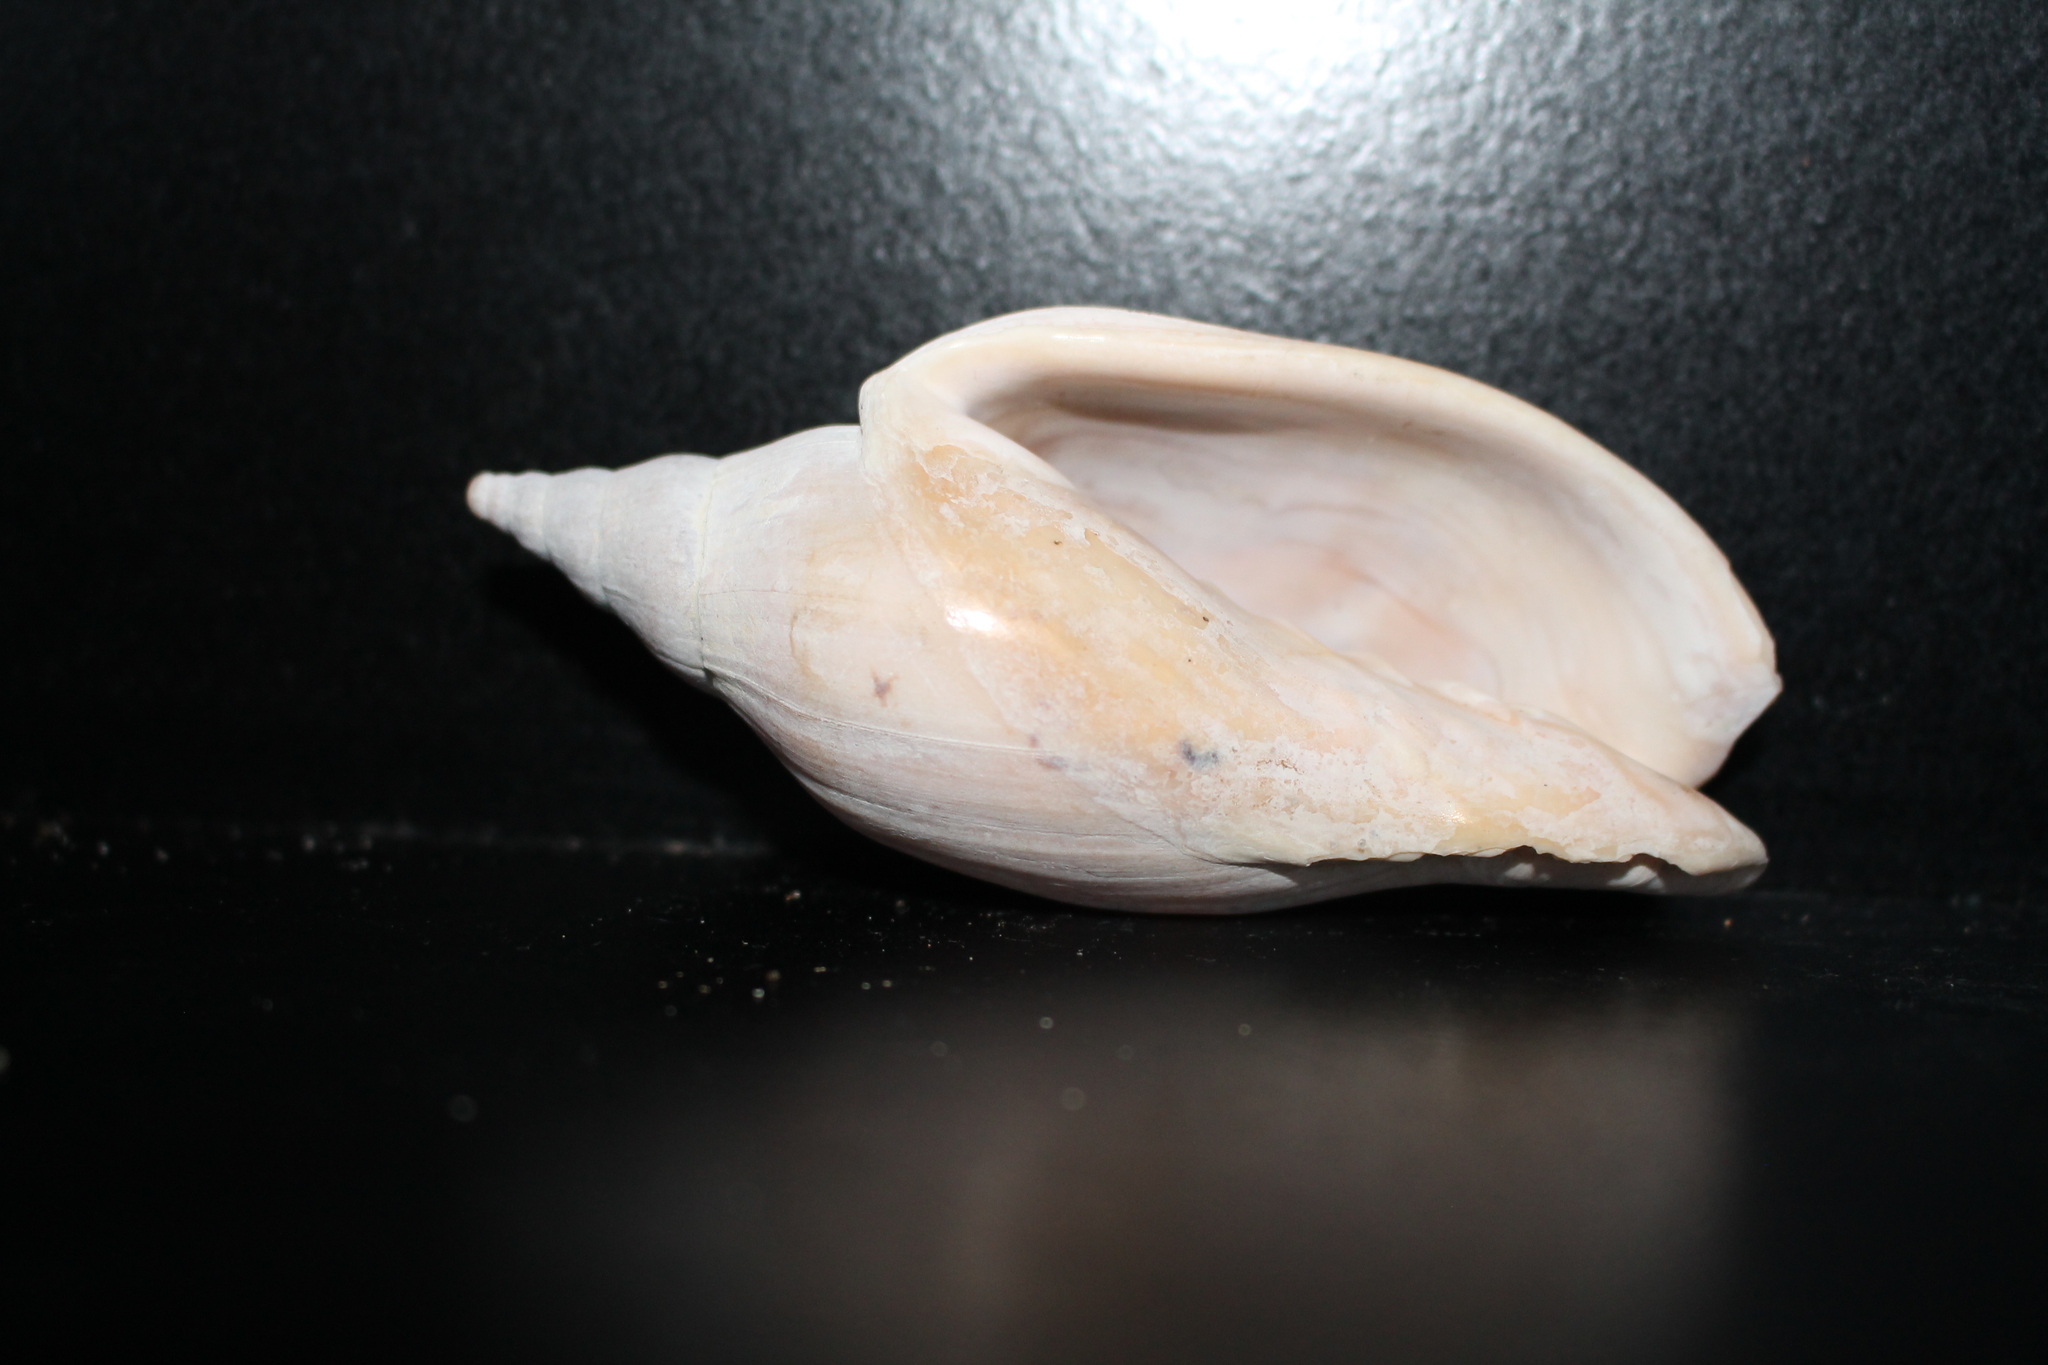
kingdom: Animalia
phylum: Mollusca
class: Gastropoda
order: Neogastropoda
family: Volutidae
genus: Alcithoe
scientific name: Alcithoe arabica
